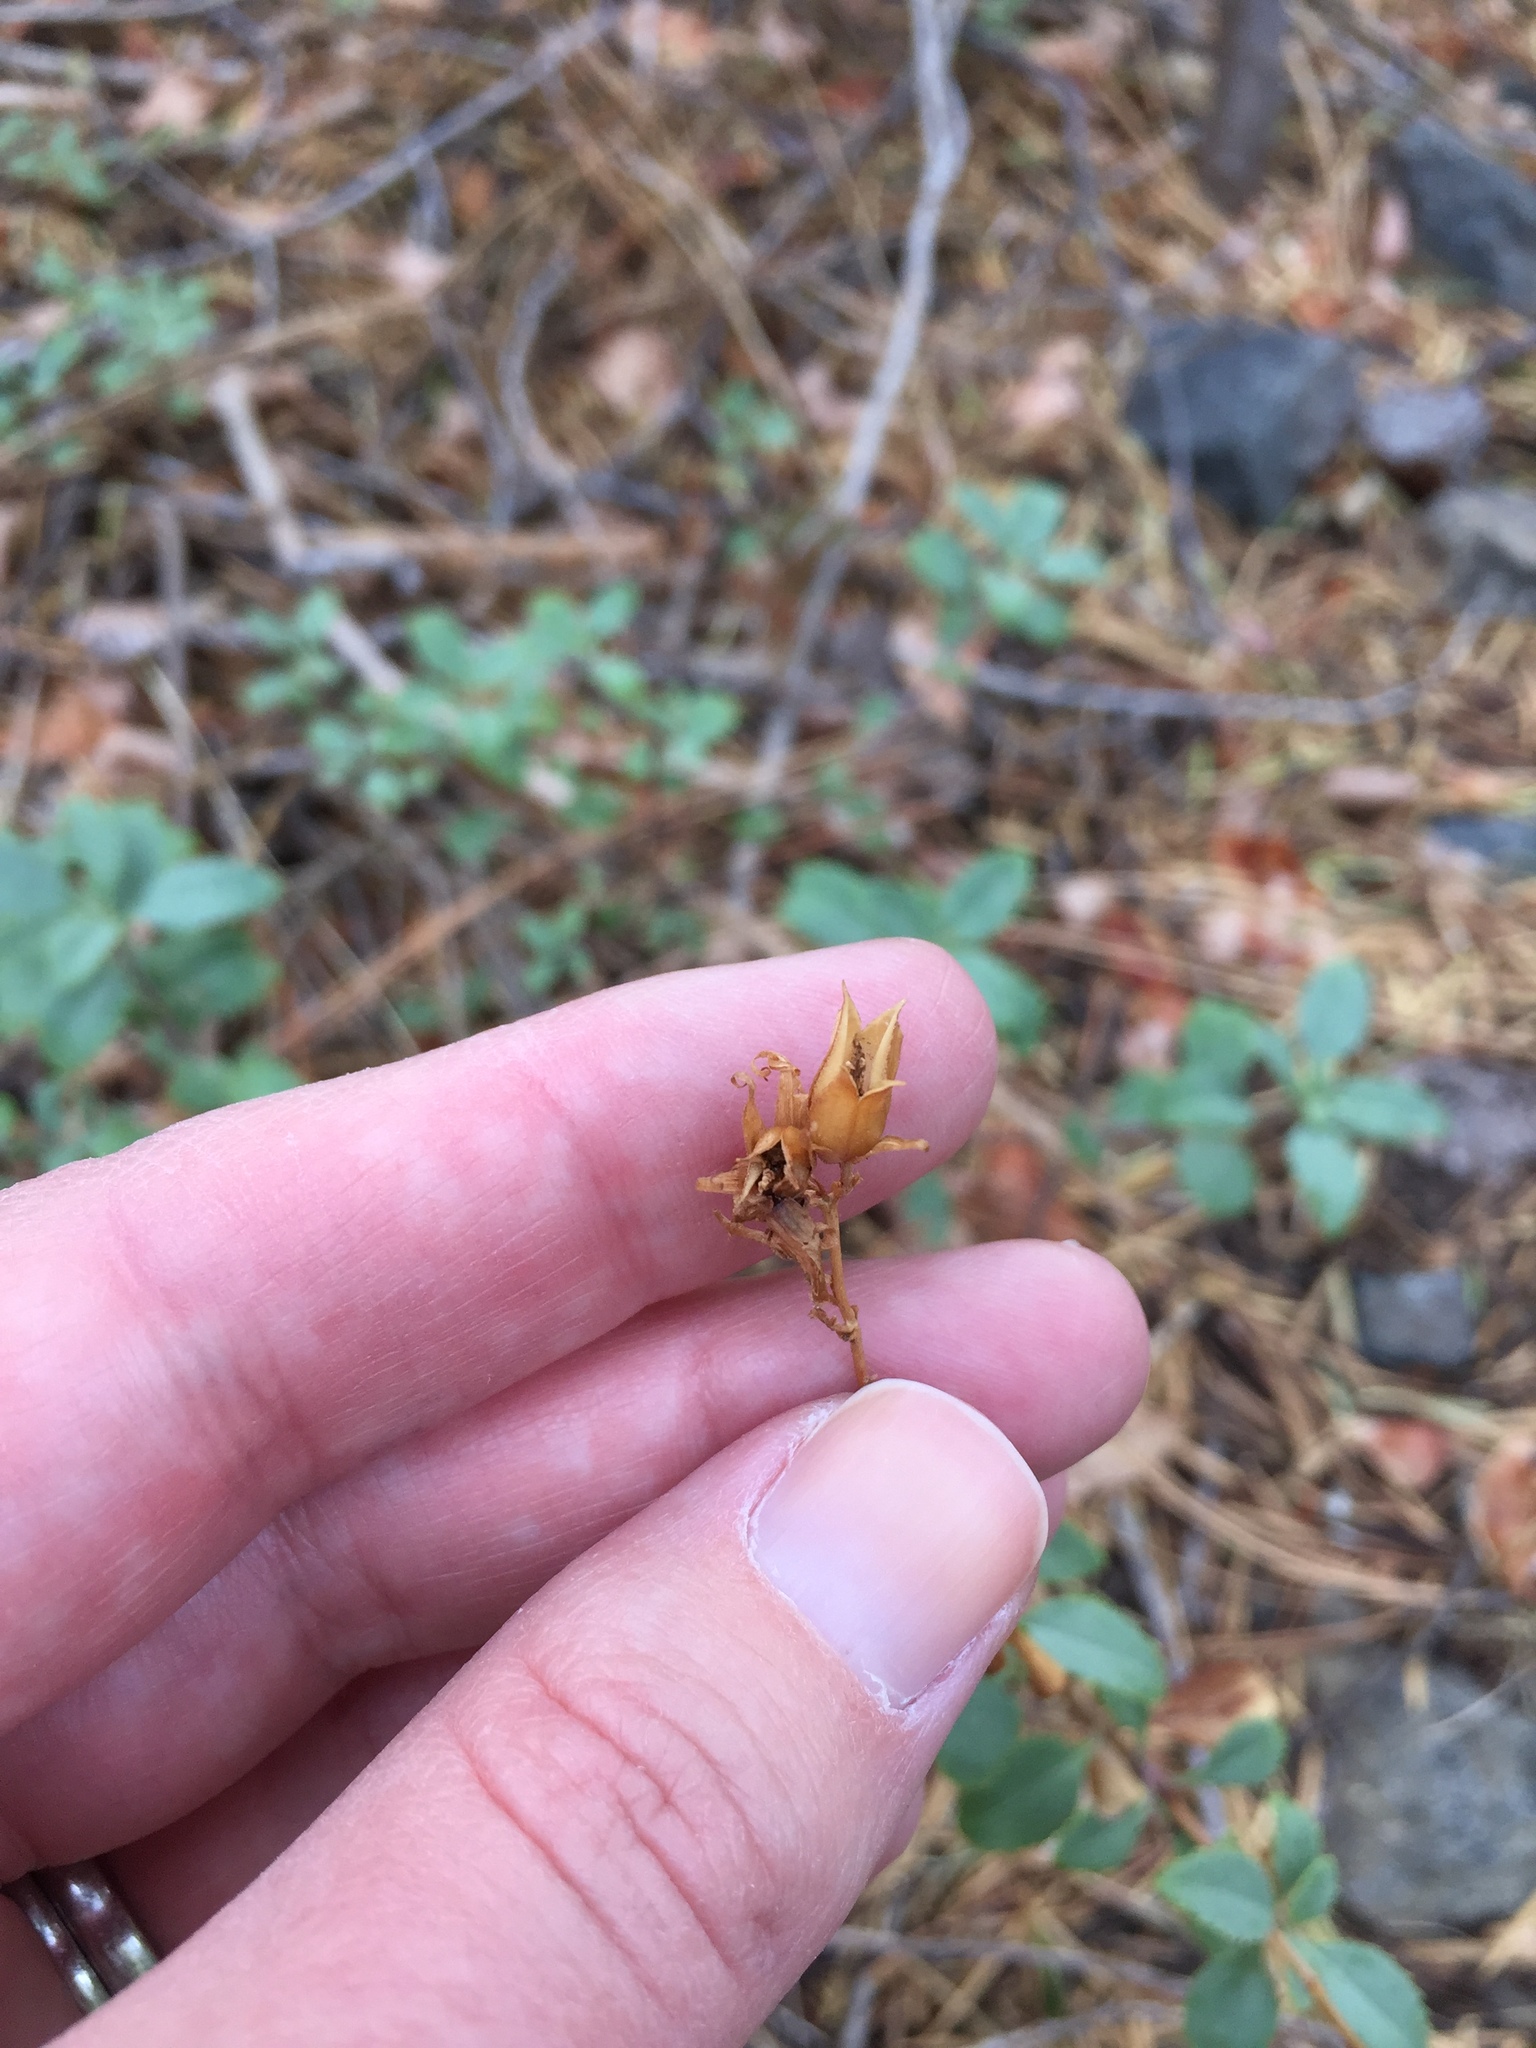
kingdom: Plantae
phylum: Tracheophyta
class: Magnoliopsida
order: Lamiales
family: Plantaginaceae
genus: Penstemon
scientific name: Penstemon newberryi
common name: Mountain-pride
